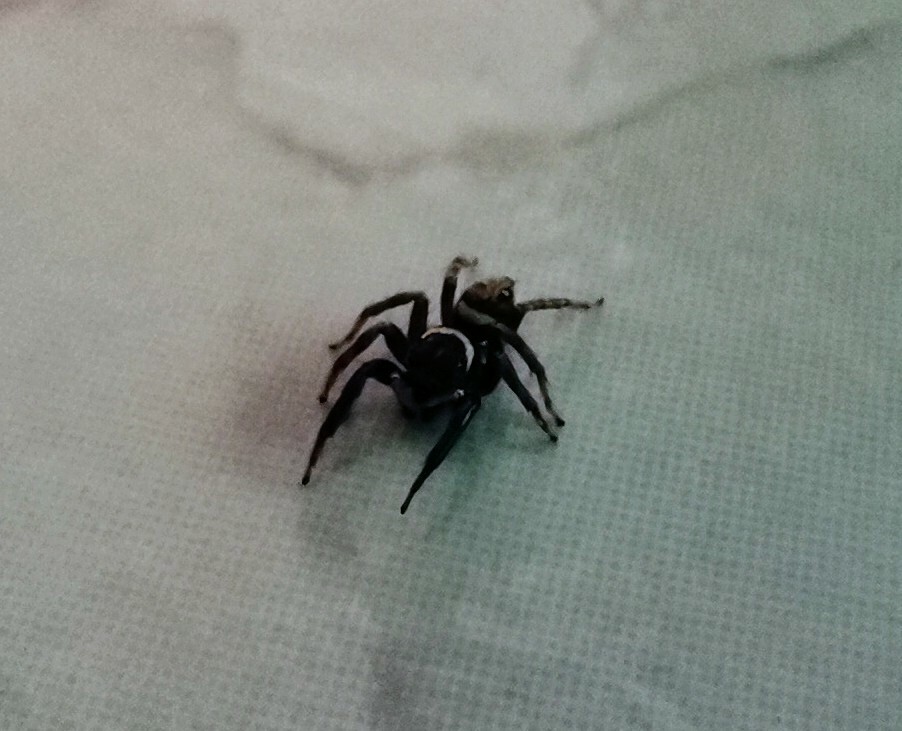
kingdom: Animalia
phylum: Arthropoda
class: Arachnida
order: Araneae
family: Salticidae
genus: Hasarius
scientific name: Hasarius adansoni
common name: Jumping spider
